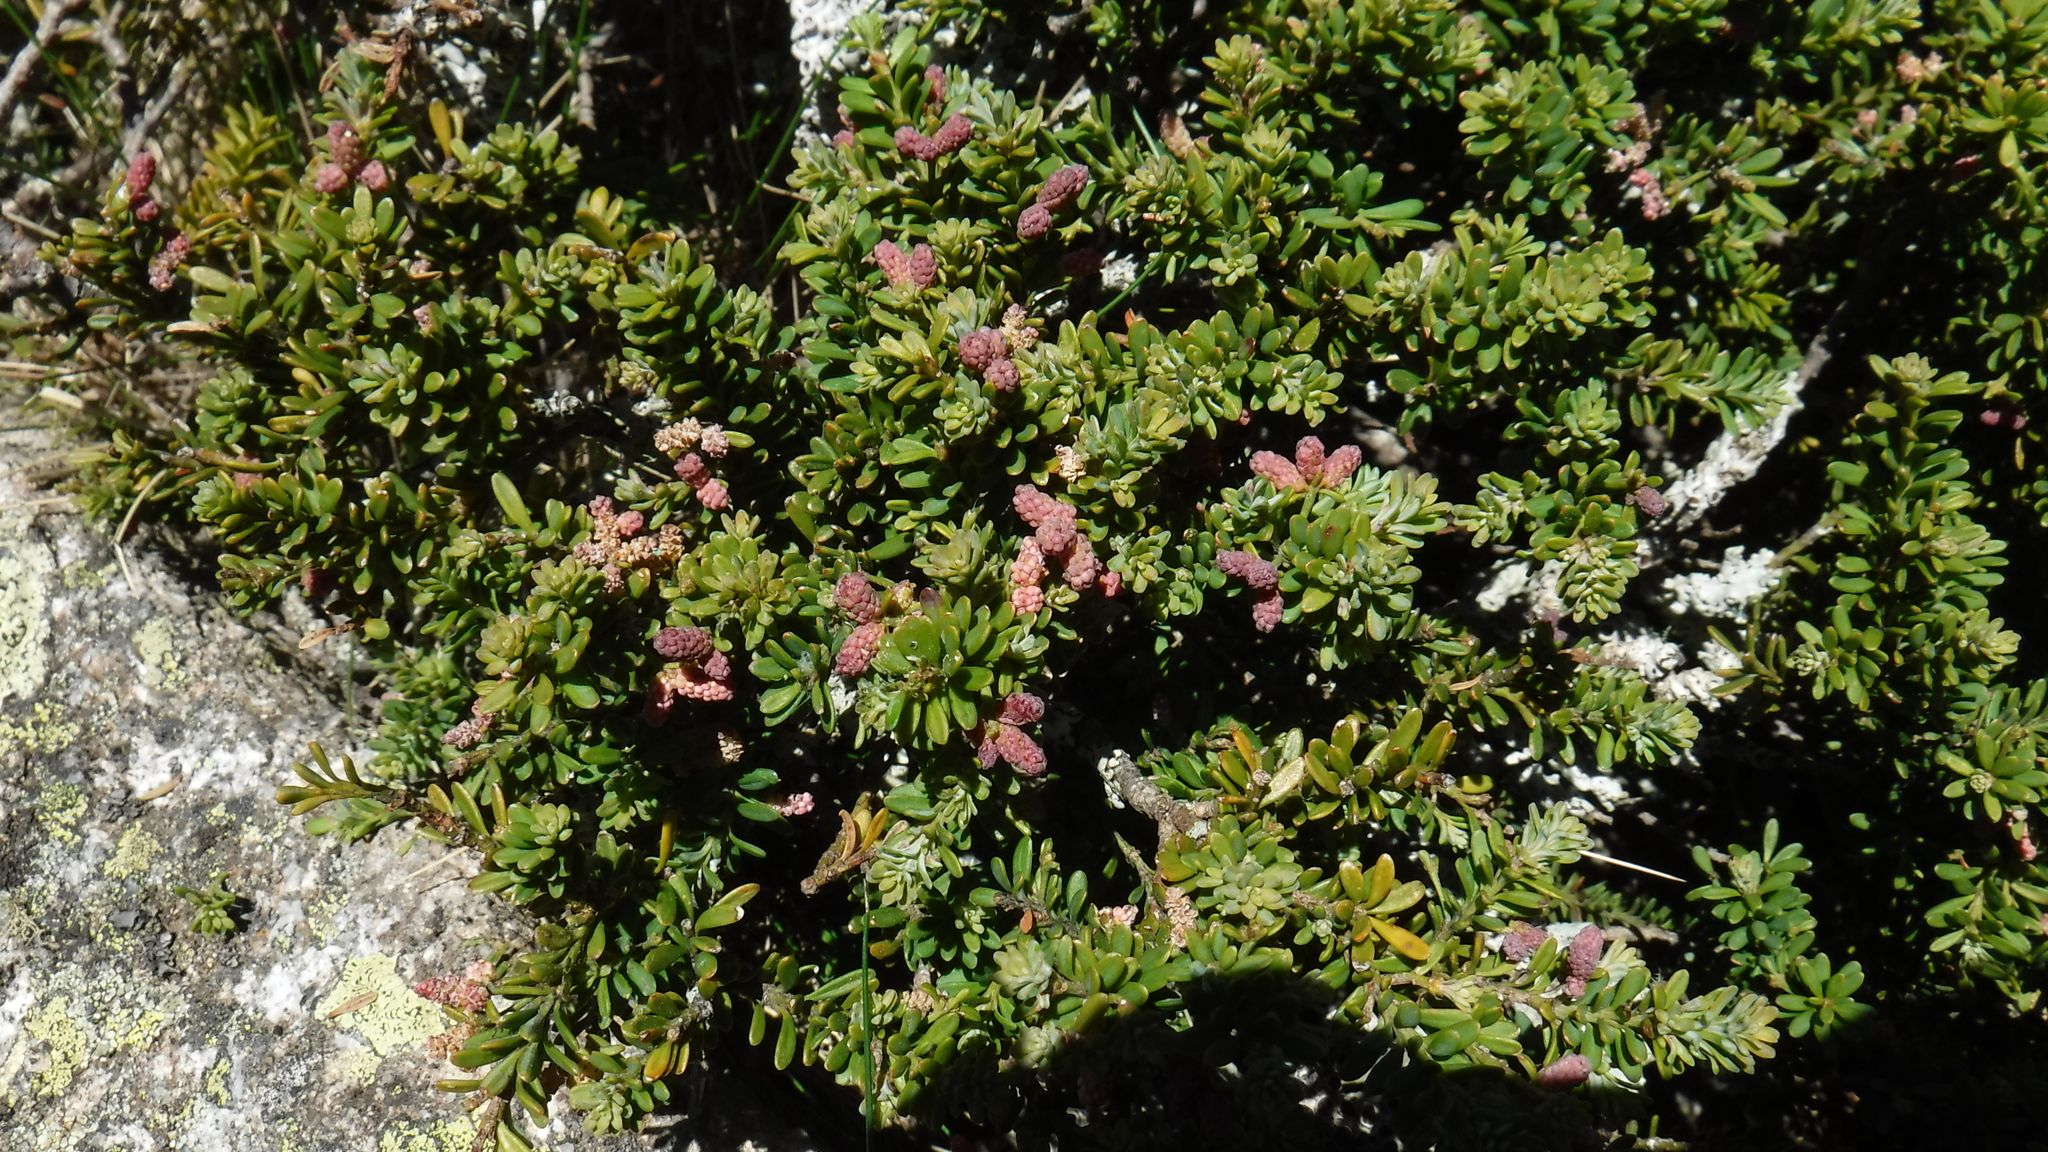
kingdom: Plantae
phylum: Tracheophyta
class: Pinopsida
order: Pinales
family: Podocarpaceae
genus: Podocarpus
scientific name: Podocarpus lawrencei
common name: Mountain plum pine
